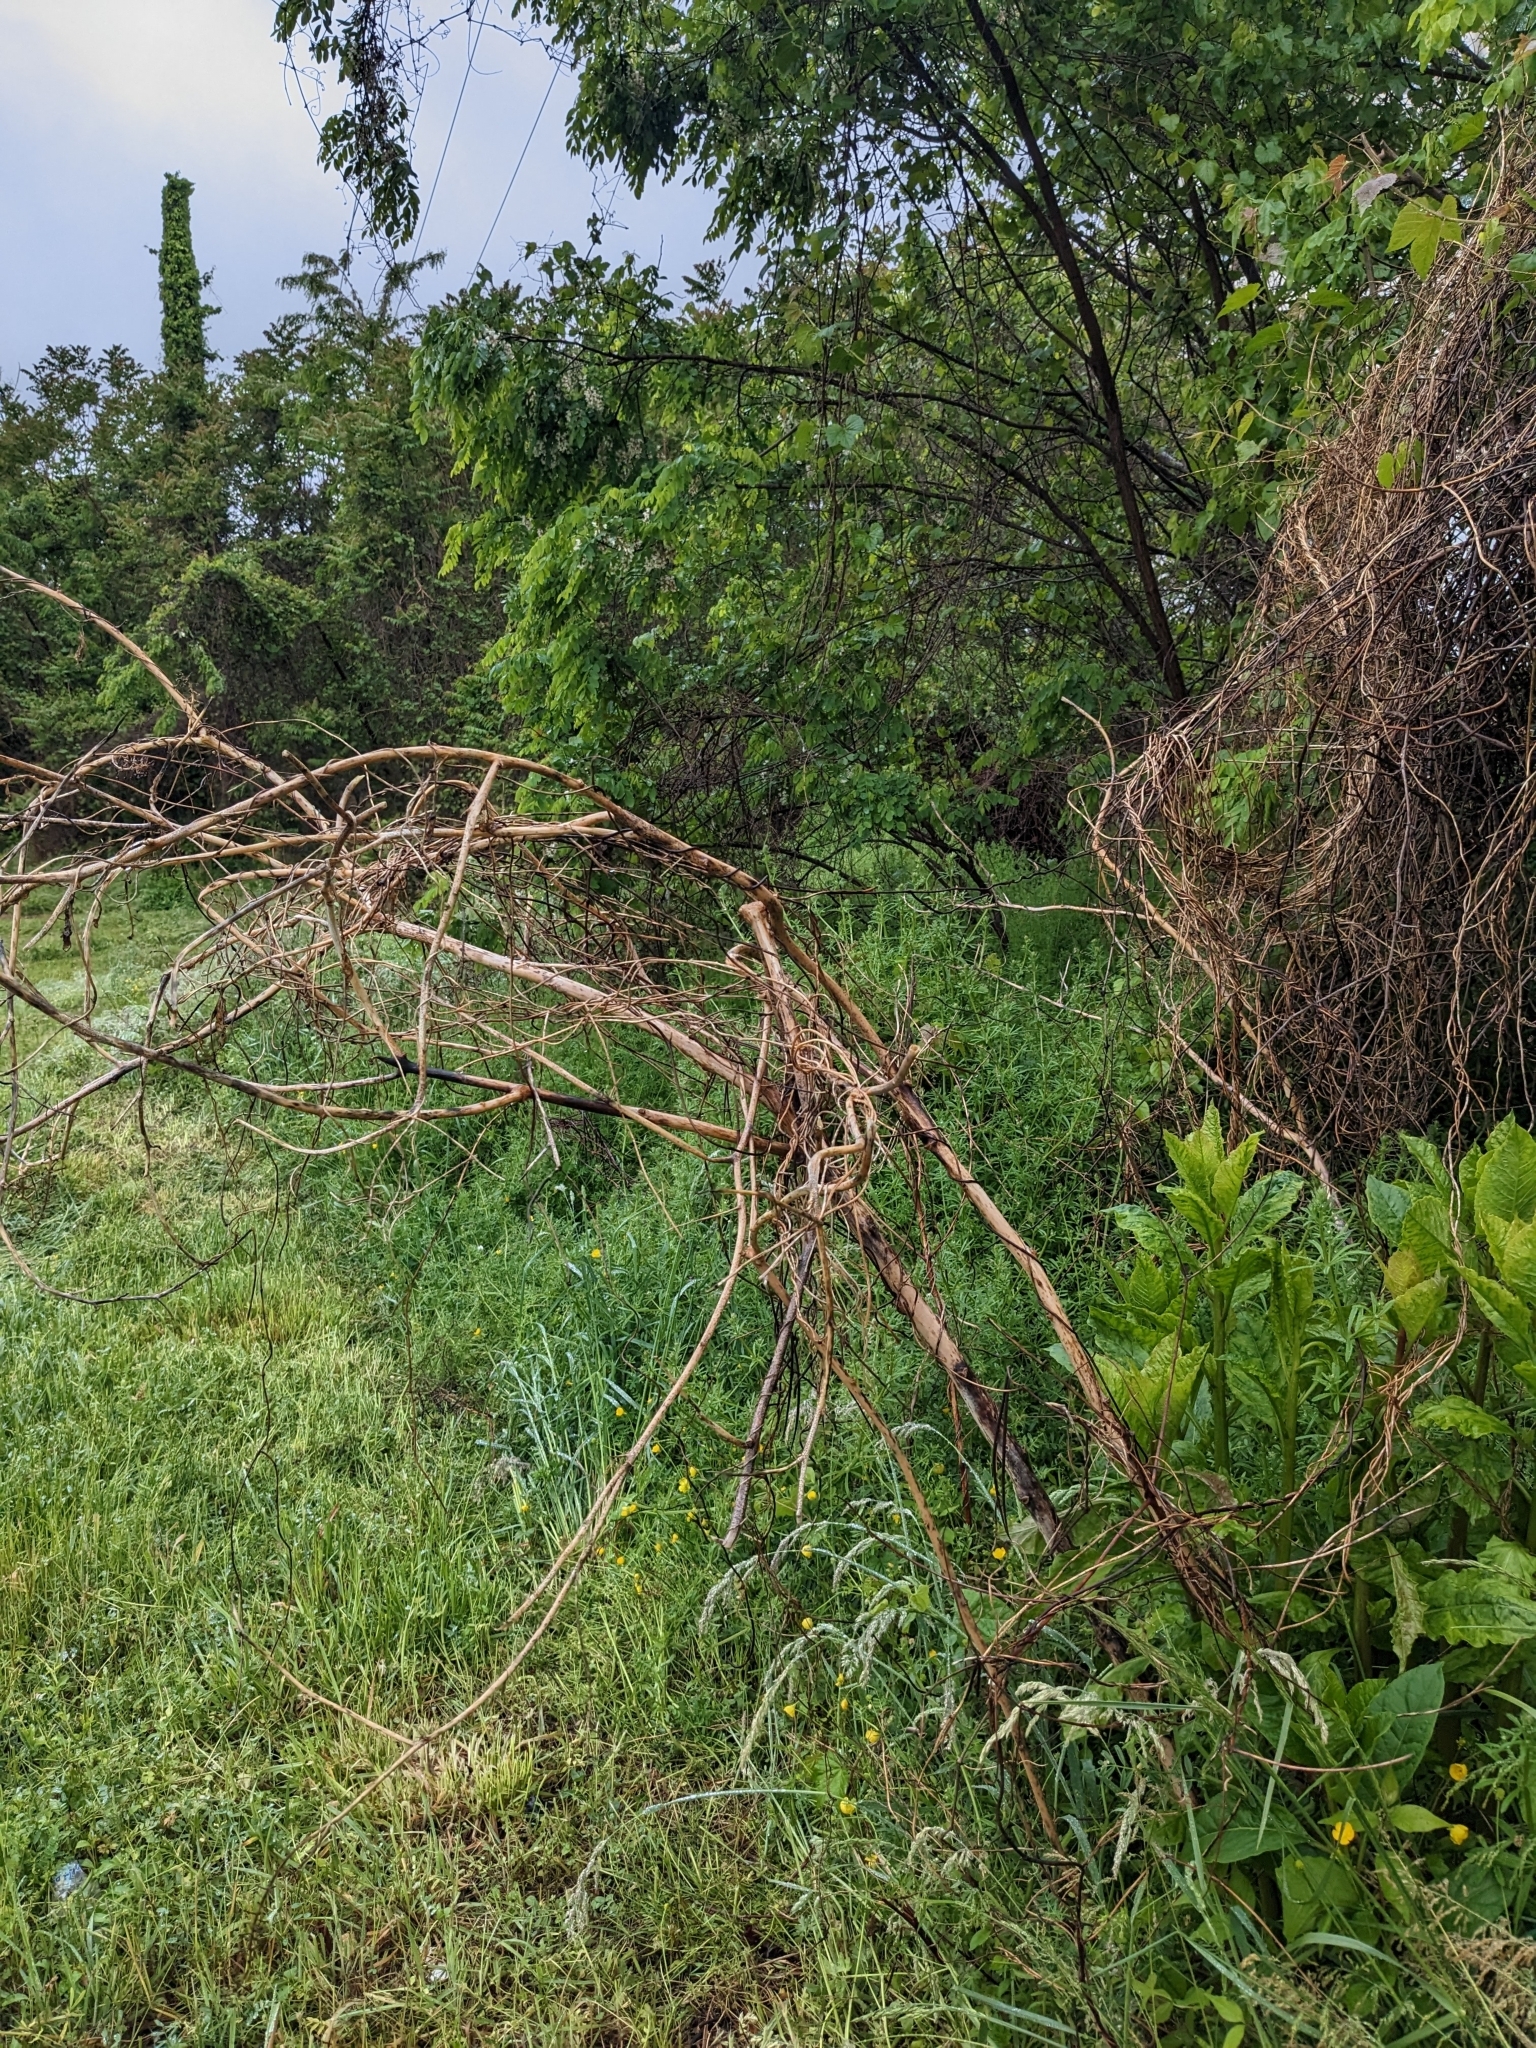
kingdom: Plantae
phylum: Tracheophyta
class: Magnoliopsida
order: Caryophyllales
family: Phytolaccaceae
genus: Phytolacca
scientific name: Phytolacca americana
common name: American pokeweed
